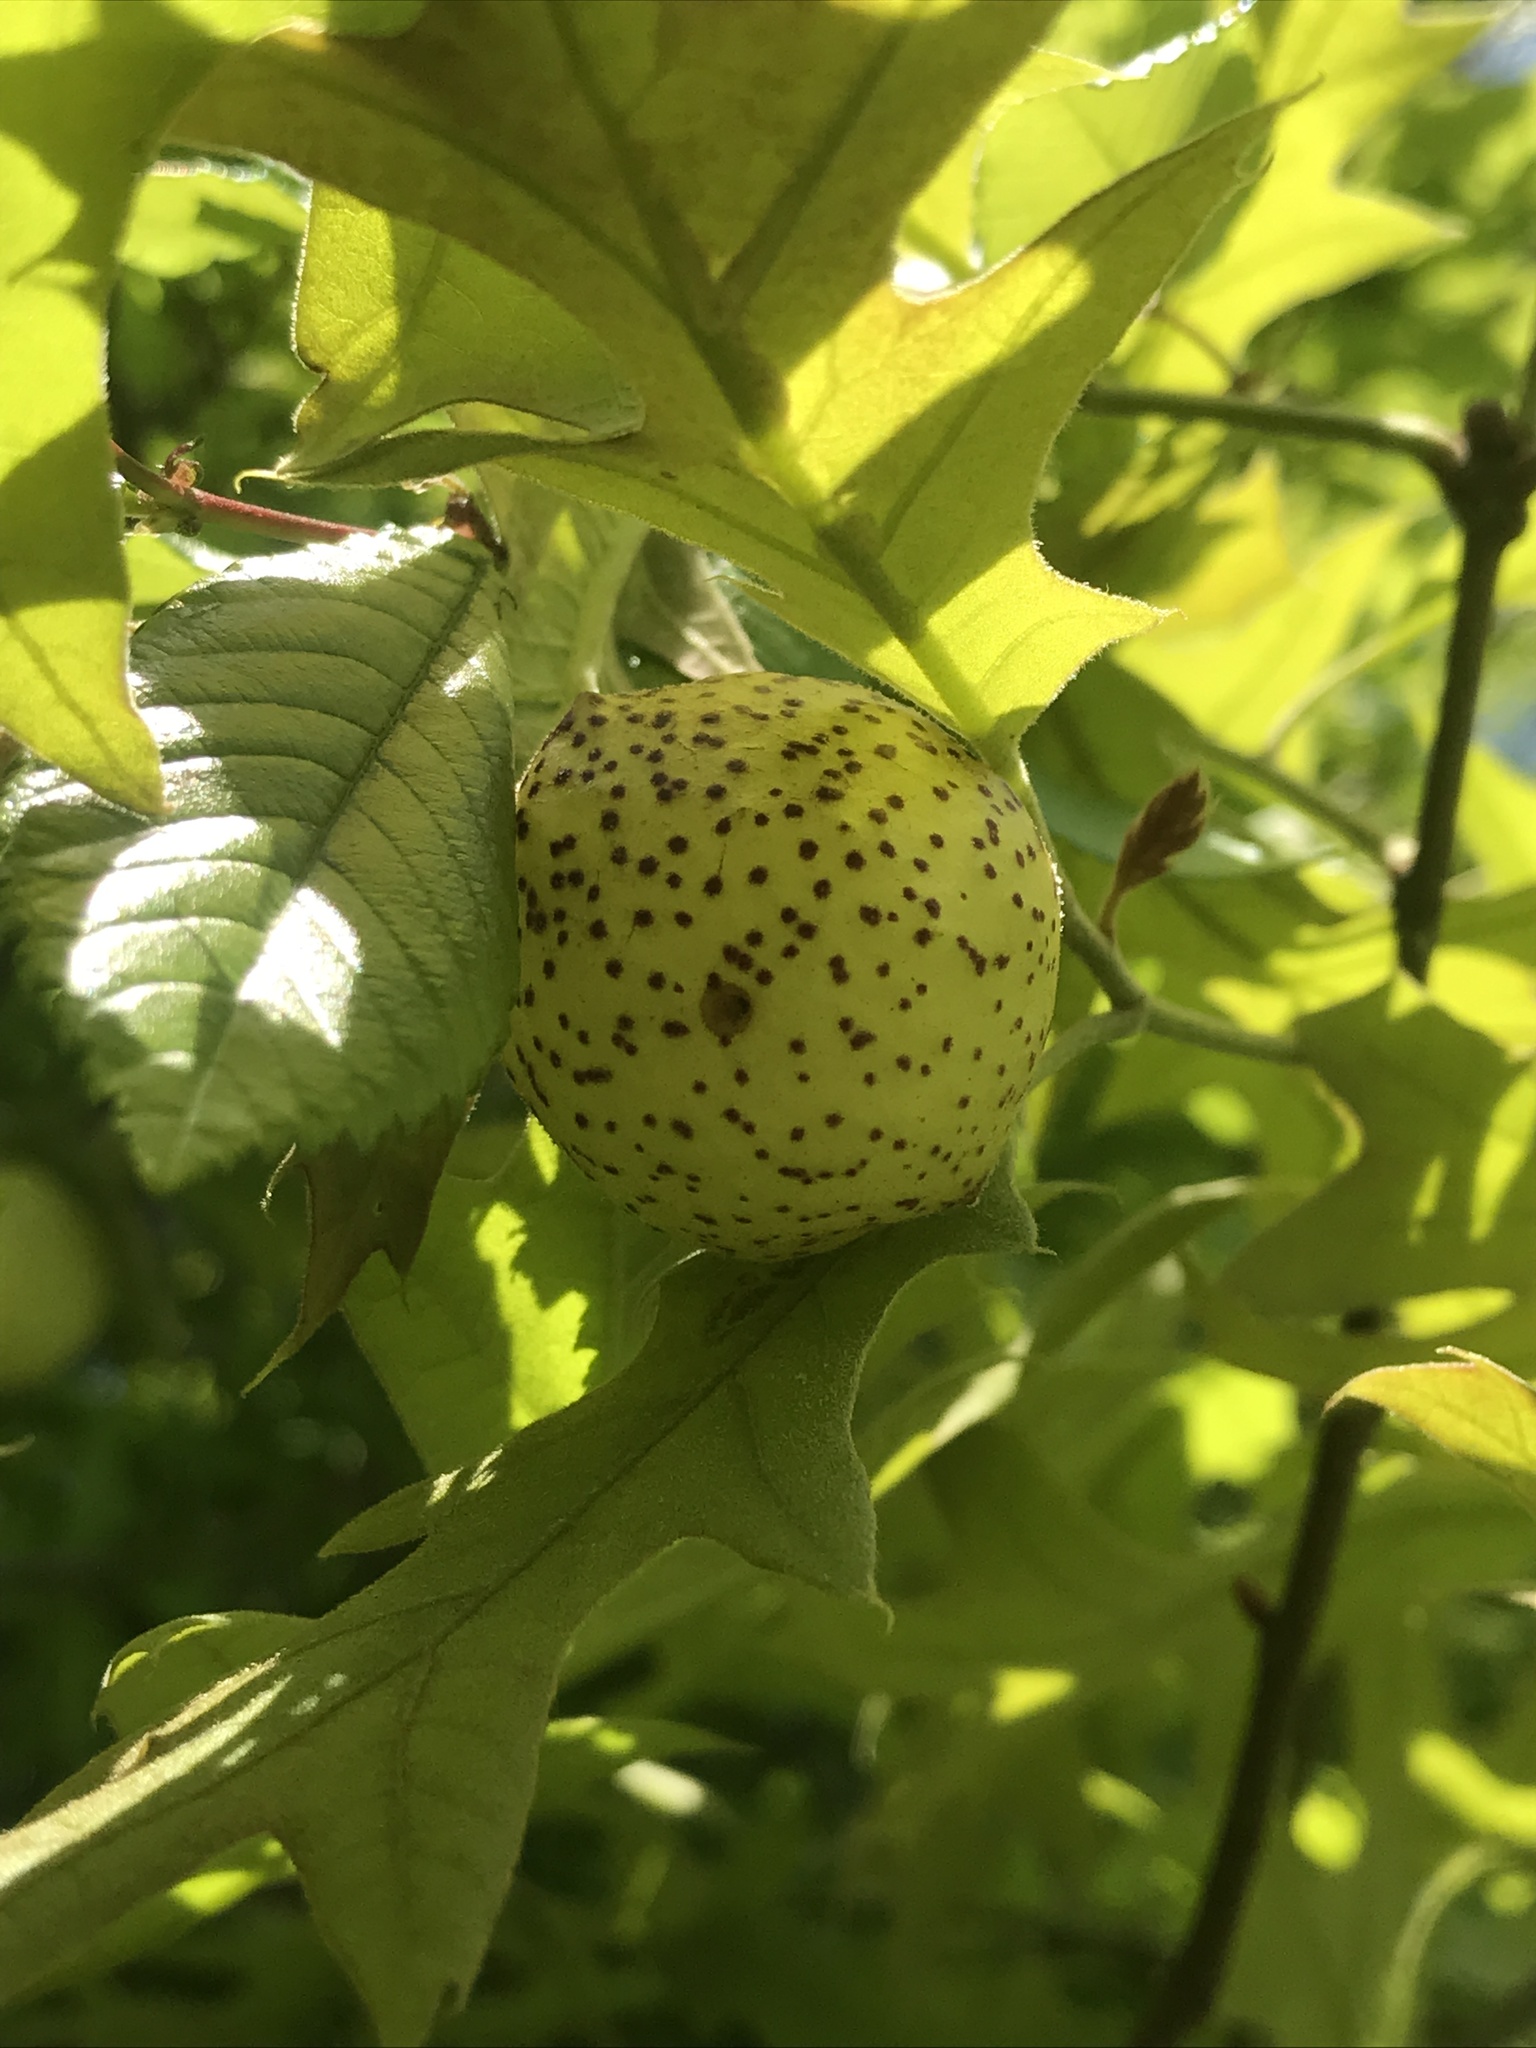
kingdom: Animalia
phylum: Arthropoda
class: Insecta
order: Hymenoptera
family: Cynipidae
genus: Amphibolips
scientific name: Amphibolips
